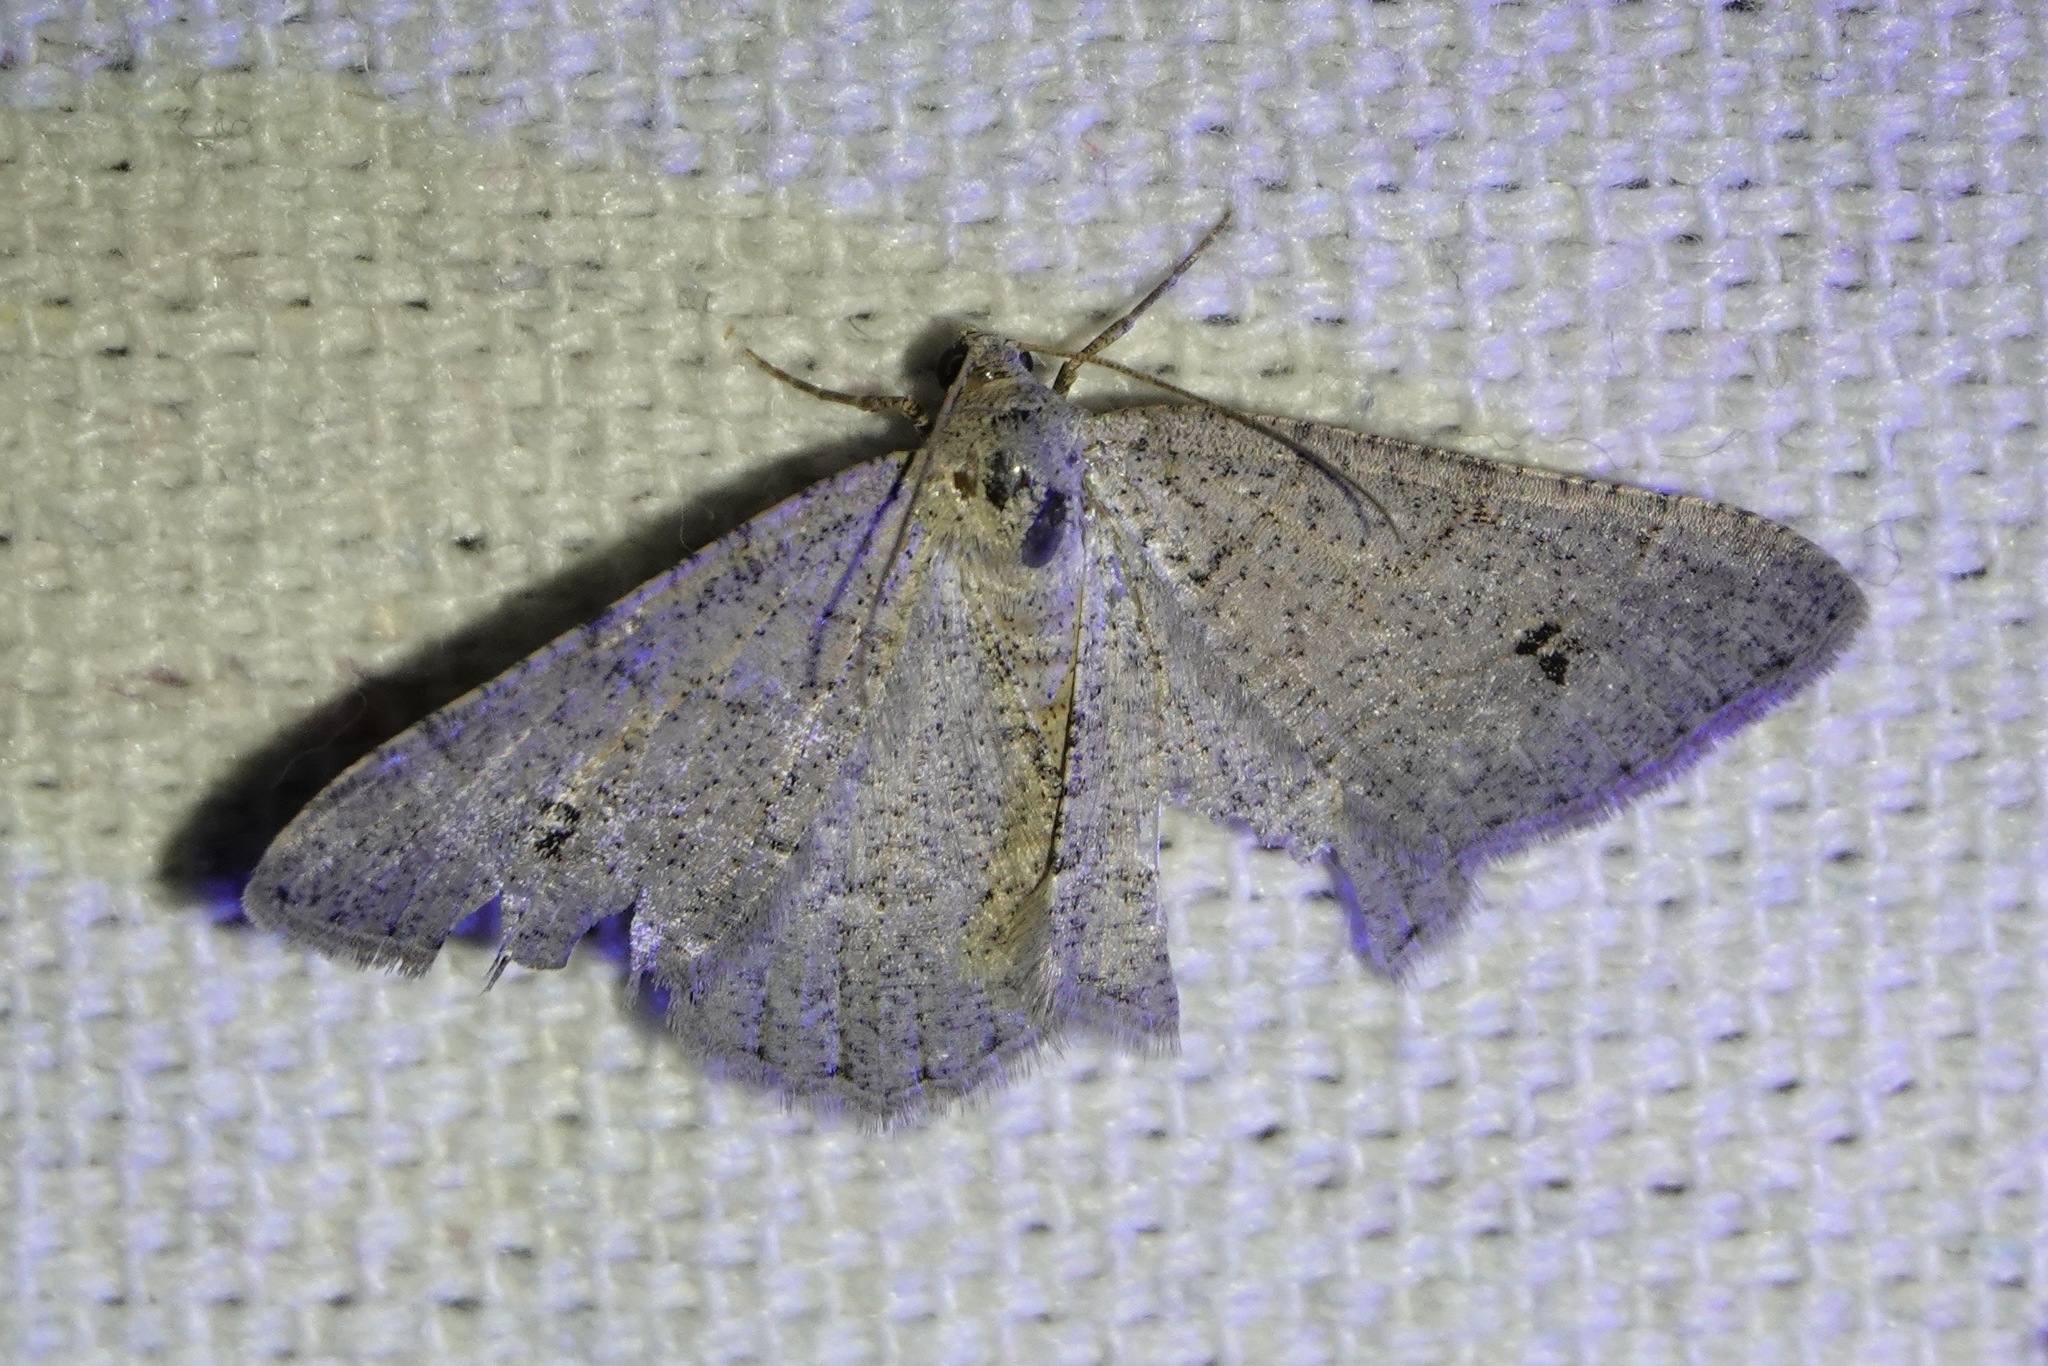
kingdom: Animalia
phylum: Arthropoda
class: Insecta
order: Lepidoptera
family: Geometridae
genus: Digrammia
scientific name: Digrammia muscariata
